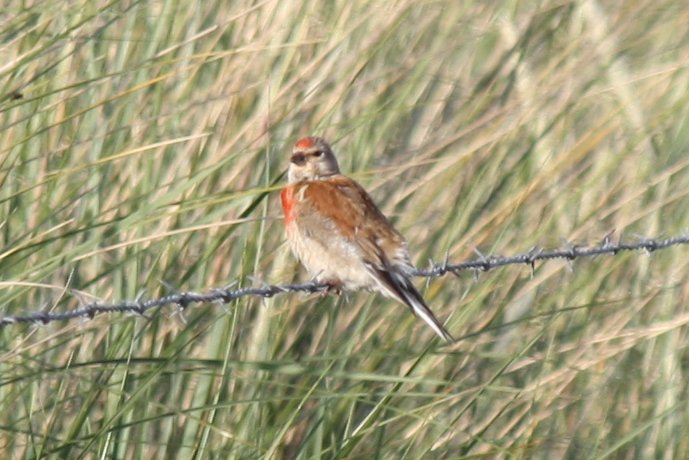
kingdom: Animalia
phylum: Chordata
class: Aves
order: Passeriformes
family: Fringillidae
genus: Linaria
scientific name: Linaria cannabina
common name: Common linnet
